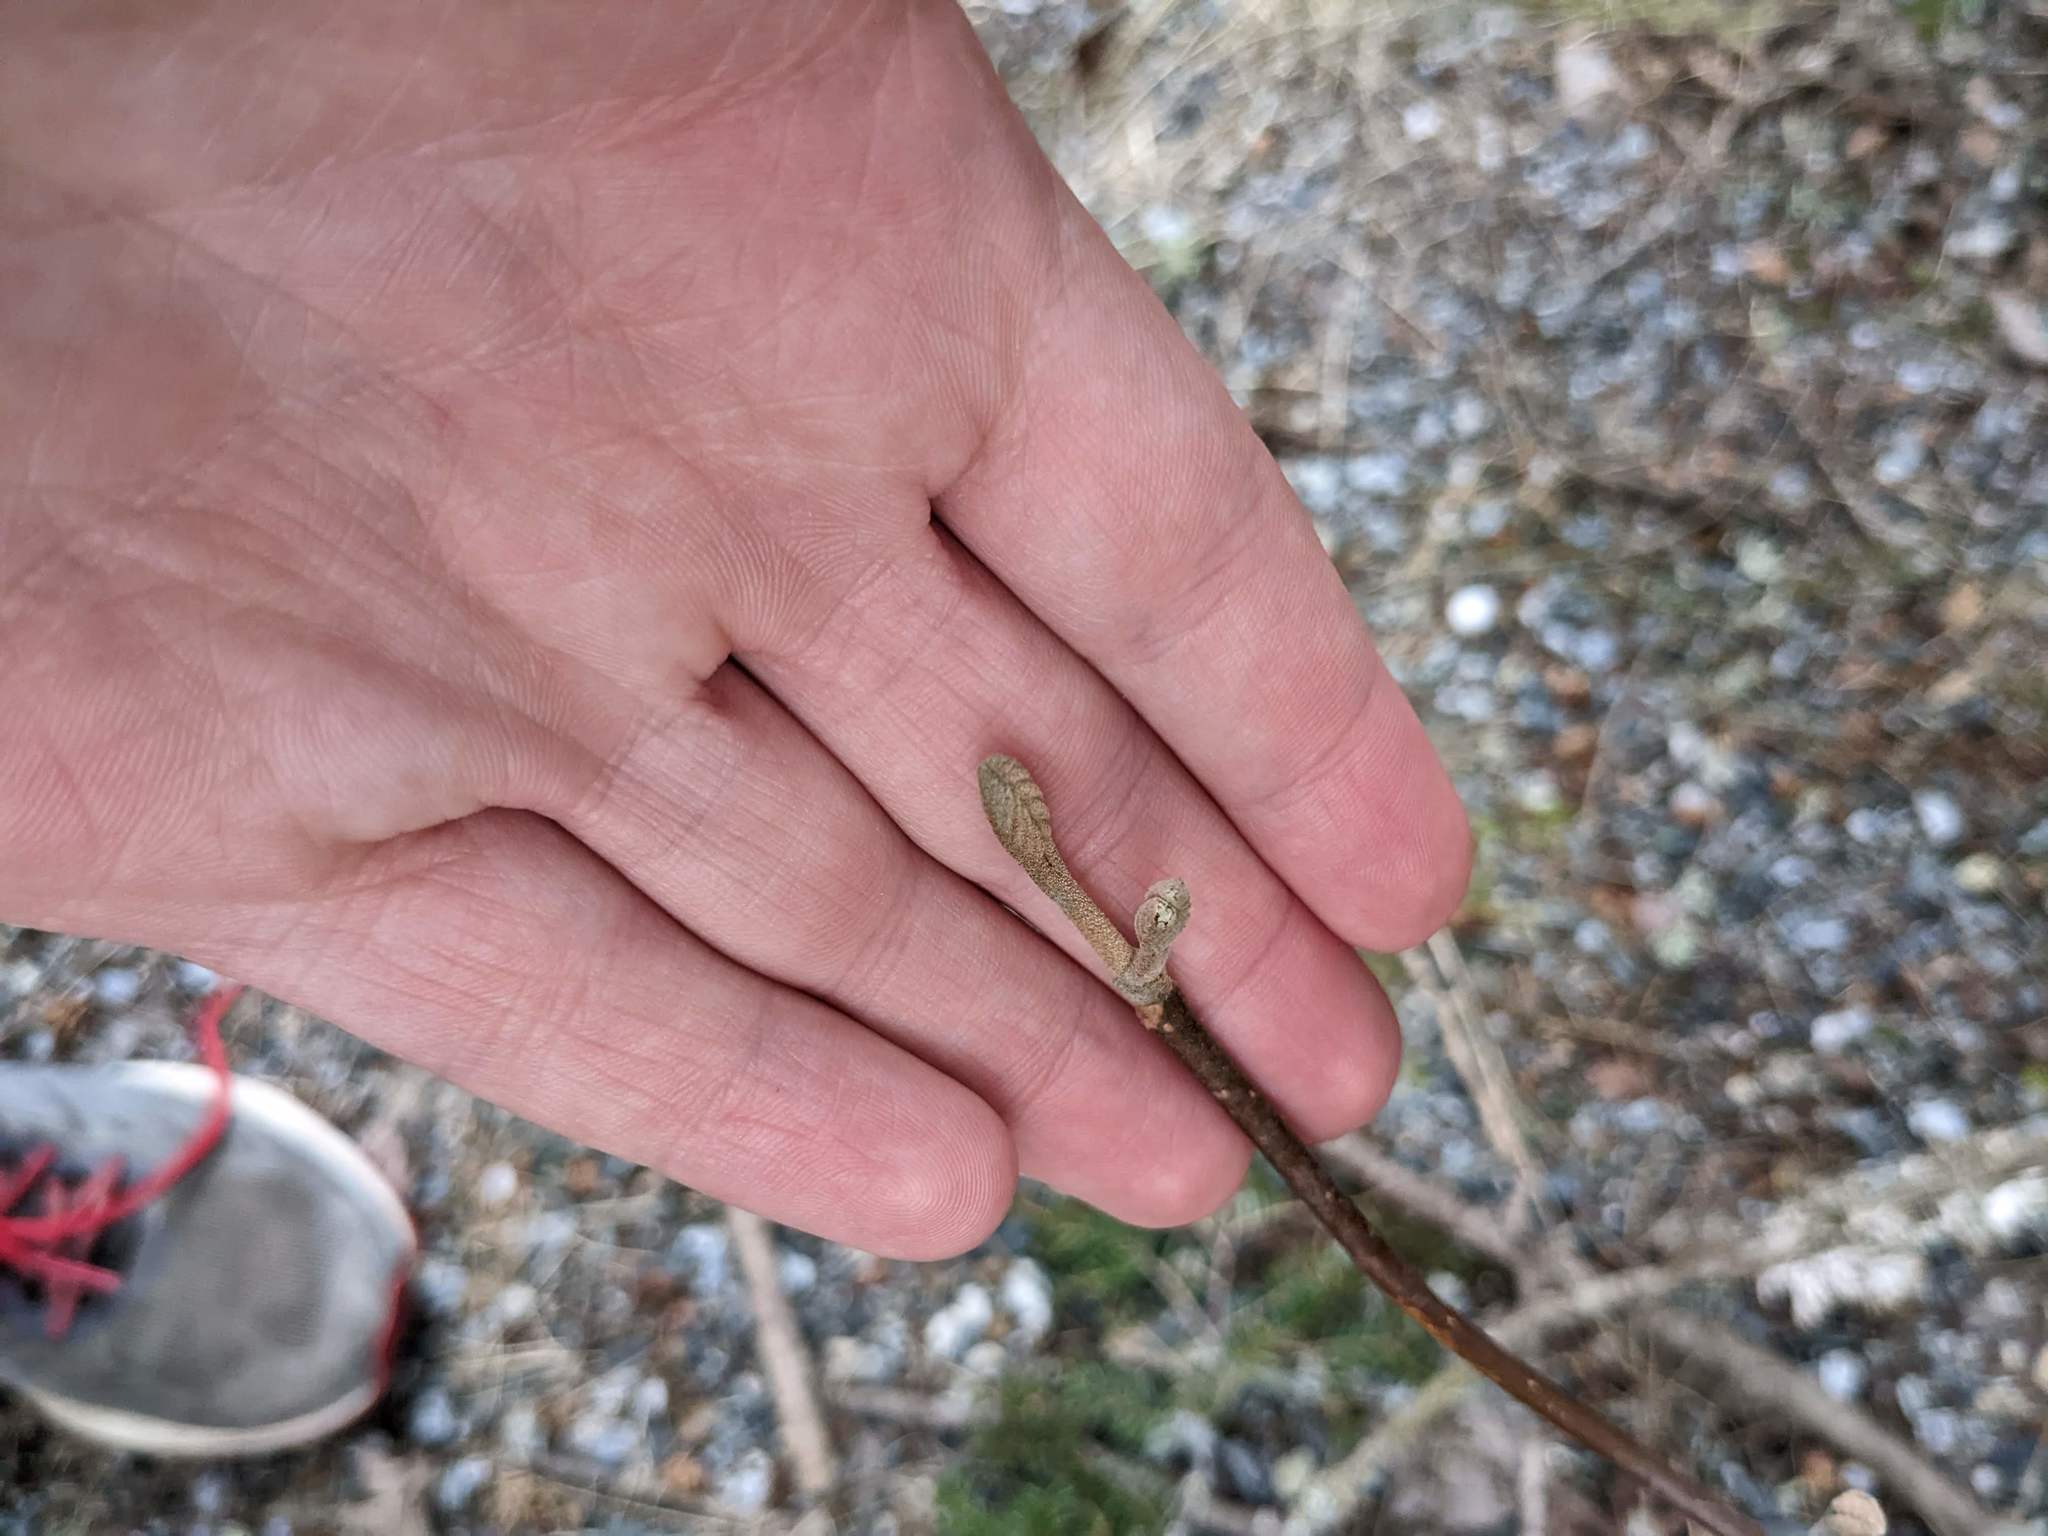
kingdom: Plantae
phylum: Tracheophyta
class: Magnoliopsida
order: Dipsacales
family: Viburnaceae
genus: Viburnum
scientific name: Viburnum lantanoides
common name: Hobblebush
